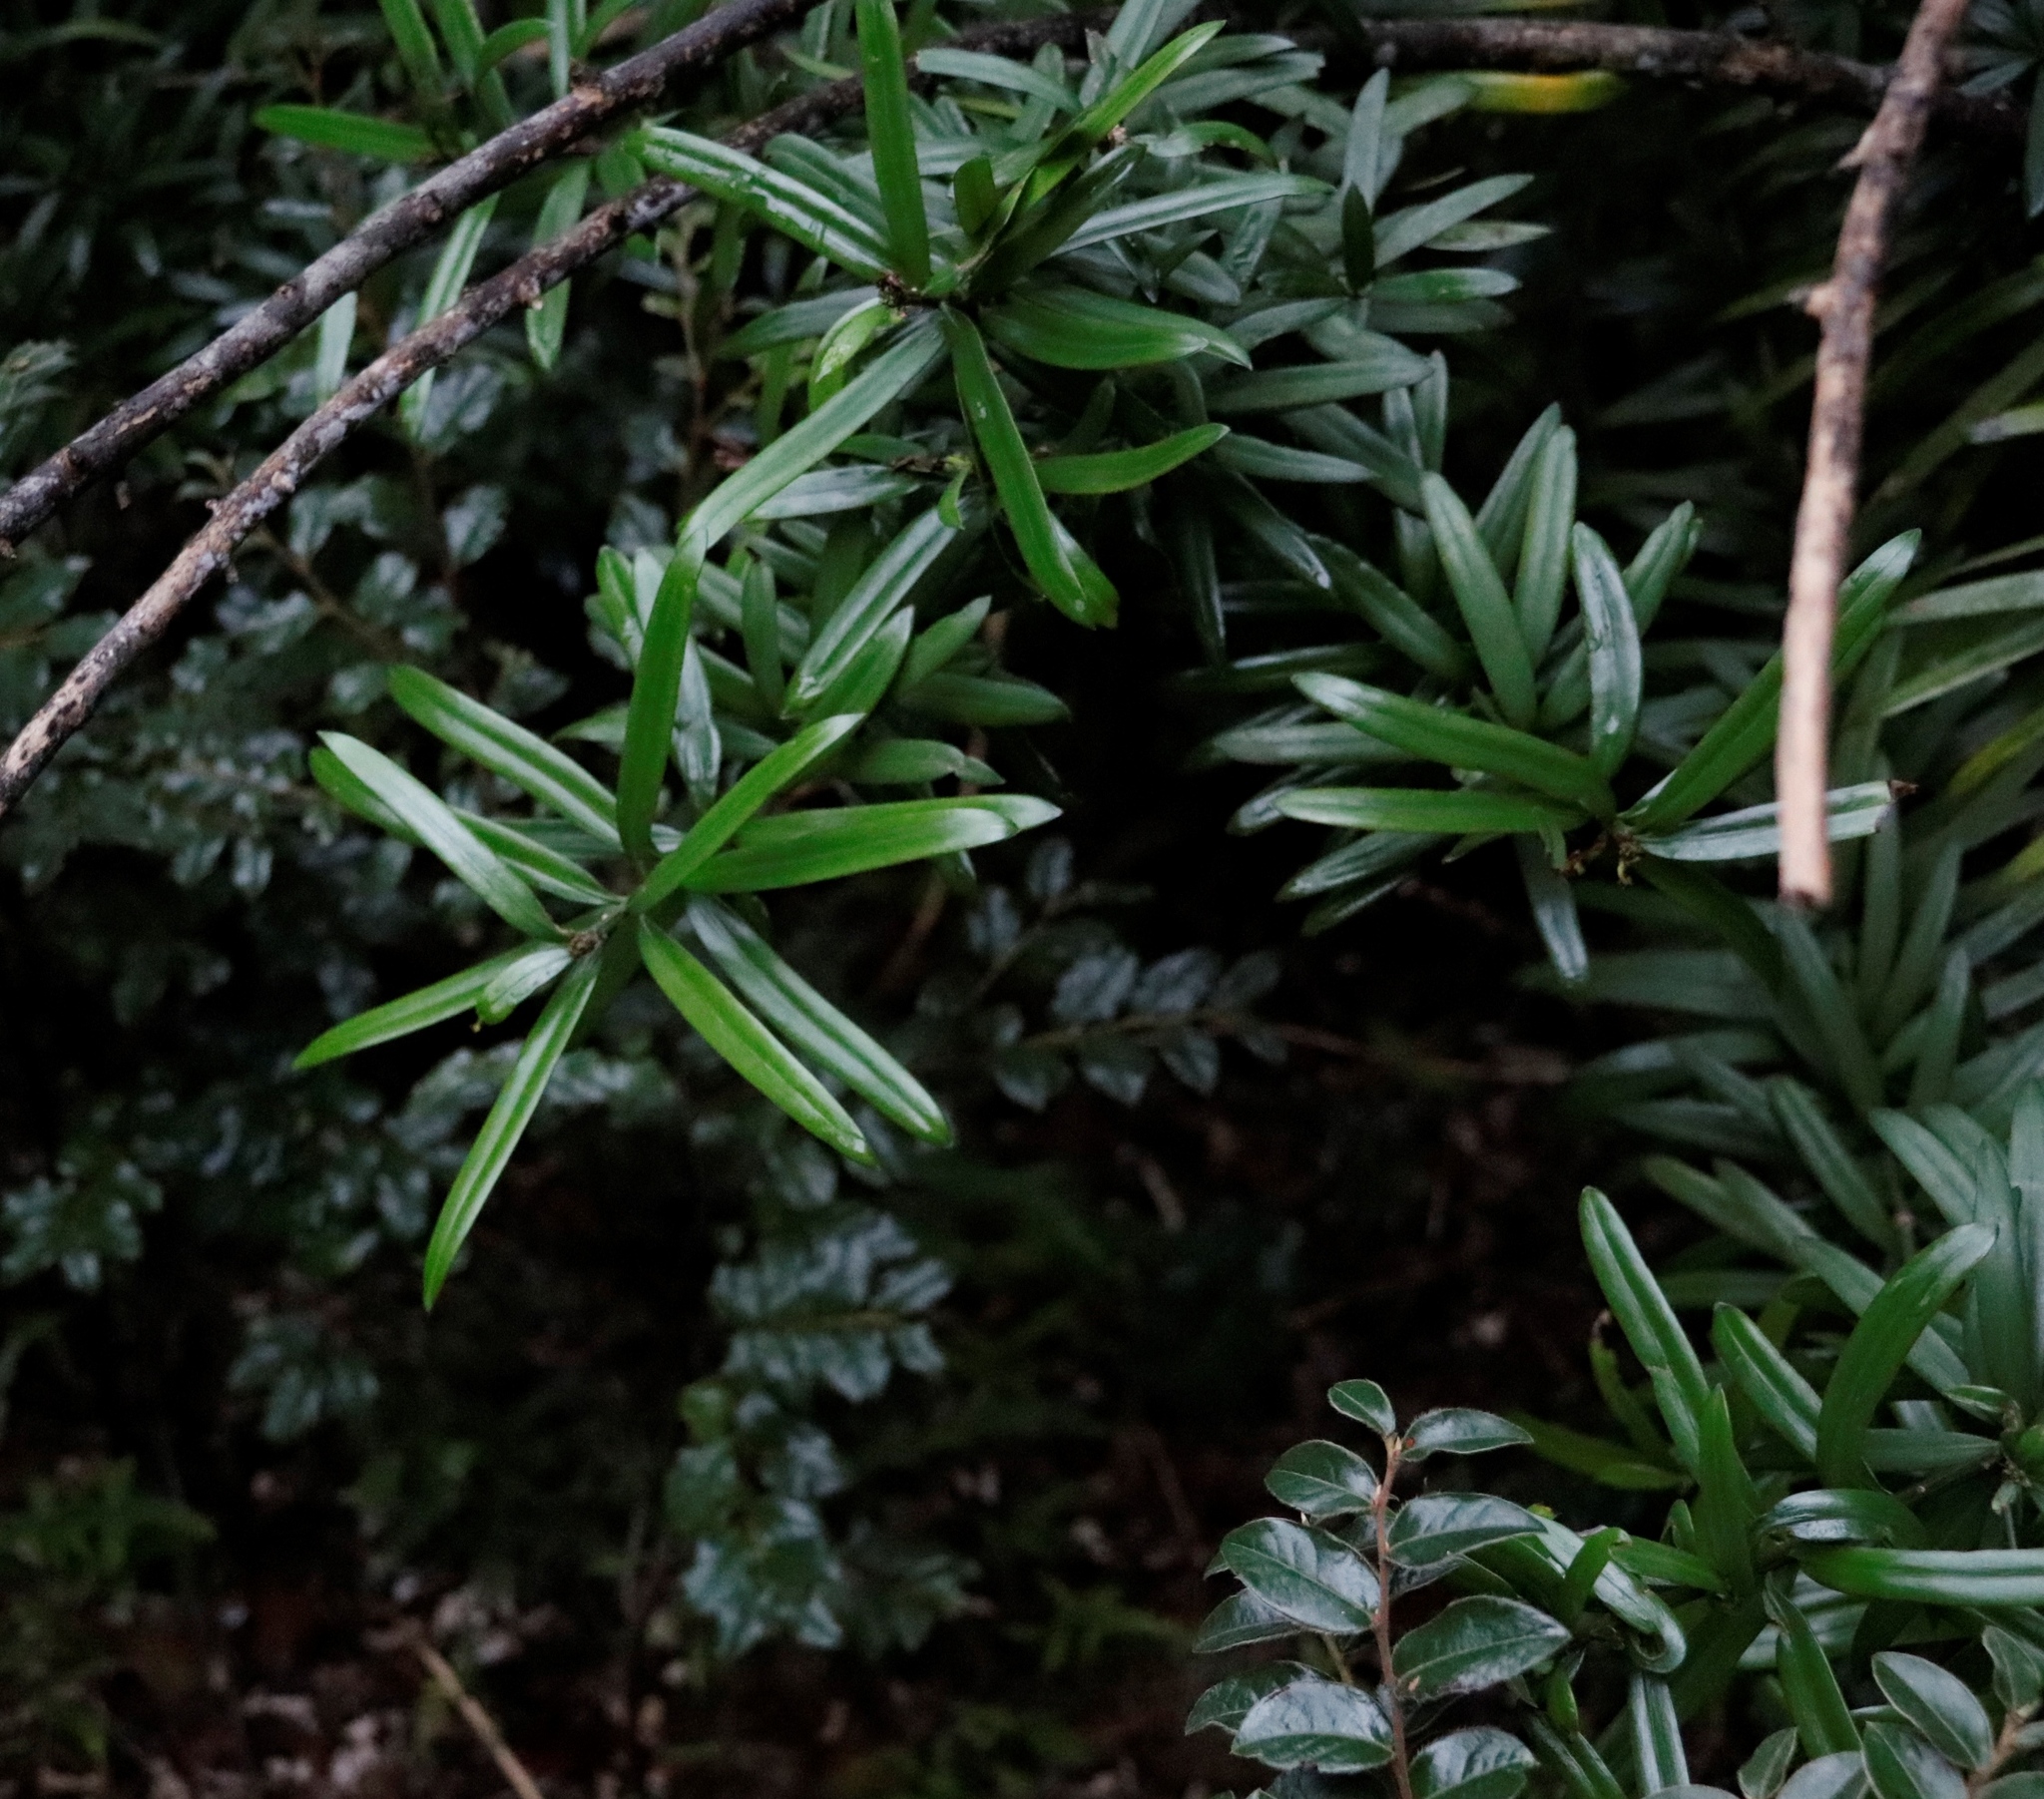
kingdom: Plantae
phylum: Tracheophyta
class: Pinopsida
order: Pinales
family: Podocarpaceae
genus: Podocarpus
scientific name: Podocarpus latifolius
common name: True yellowwood
